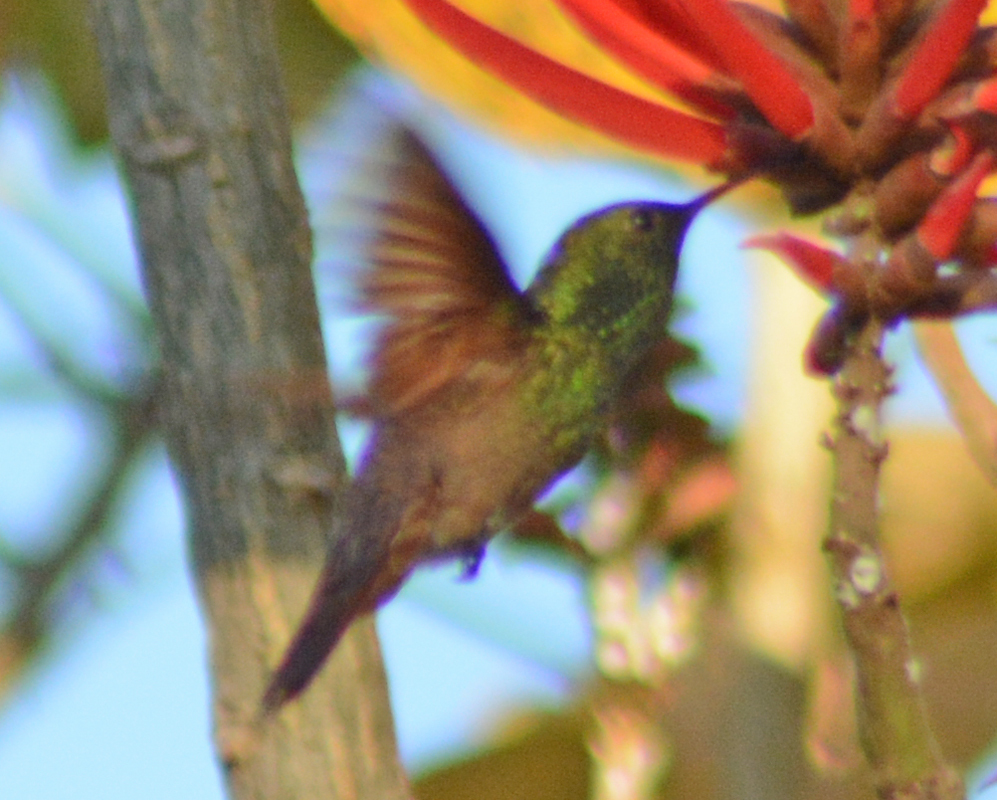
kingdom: Animalia
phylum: Chordata
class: Aves
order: Apodiformes
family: Trochilidae
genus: Saucerottia
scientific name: Saucerottia beryllina
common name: Berylline hummingbird
